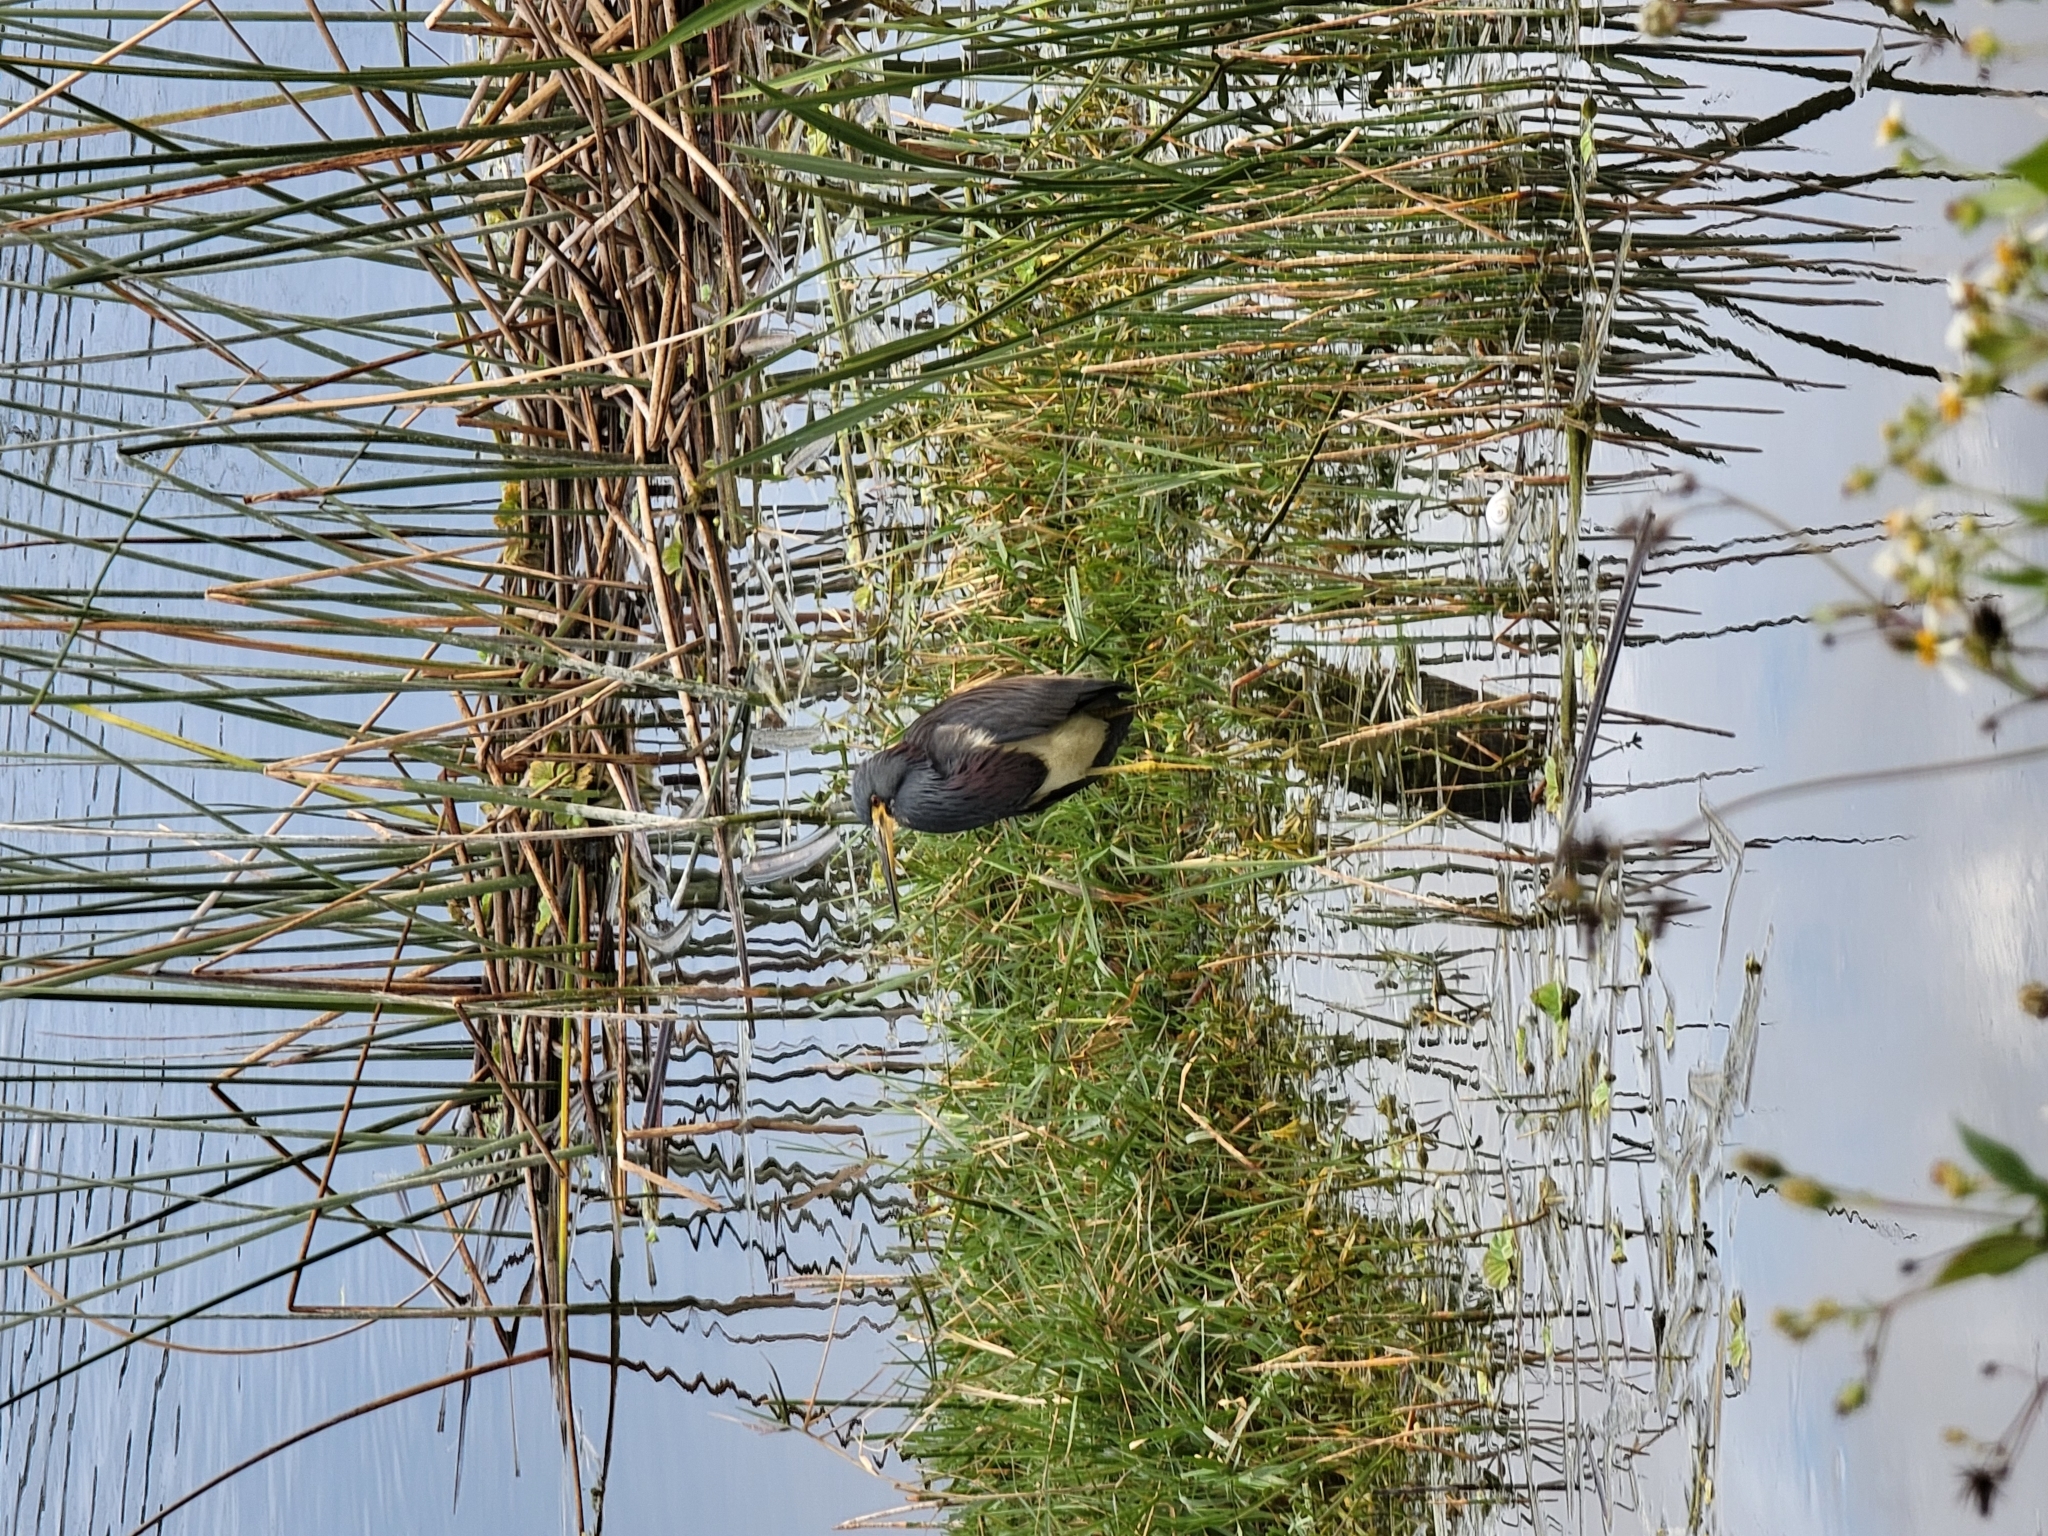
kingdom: Animalia
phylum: Chordata
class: Aves
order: Pelecaniformes
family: Ardeidae
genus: Egretta
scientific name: Egretta tricolor
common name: Tricolored heron
